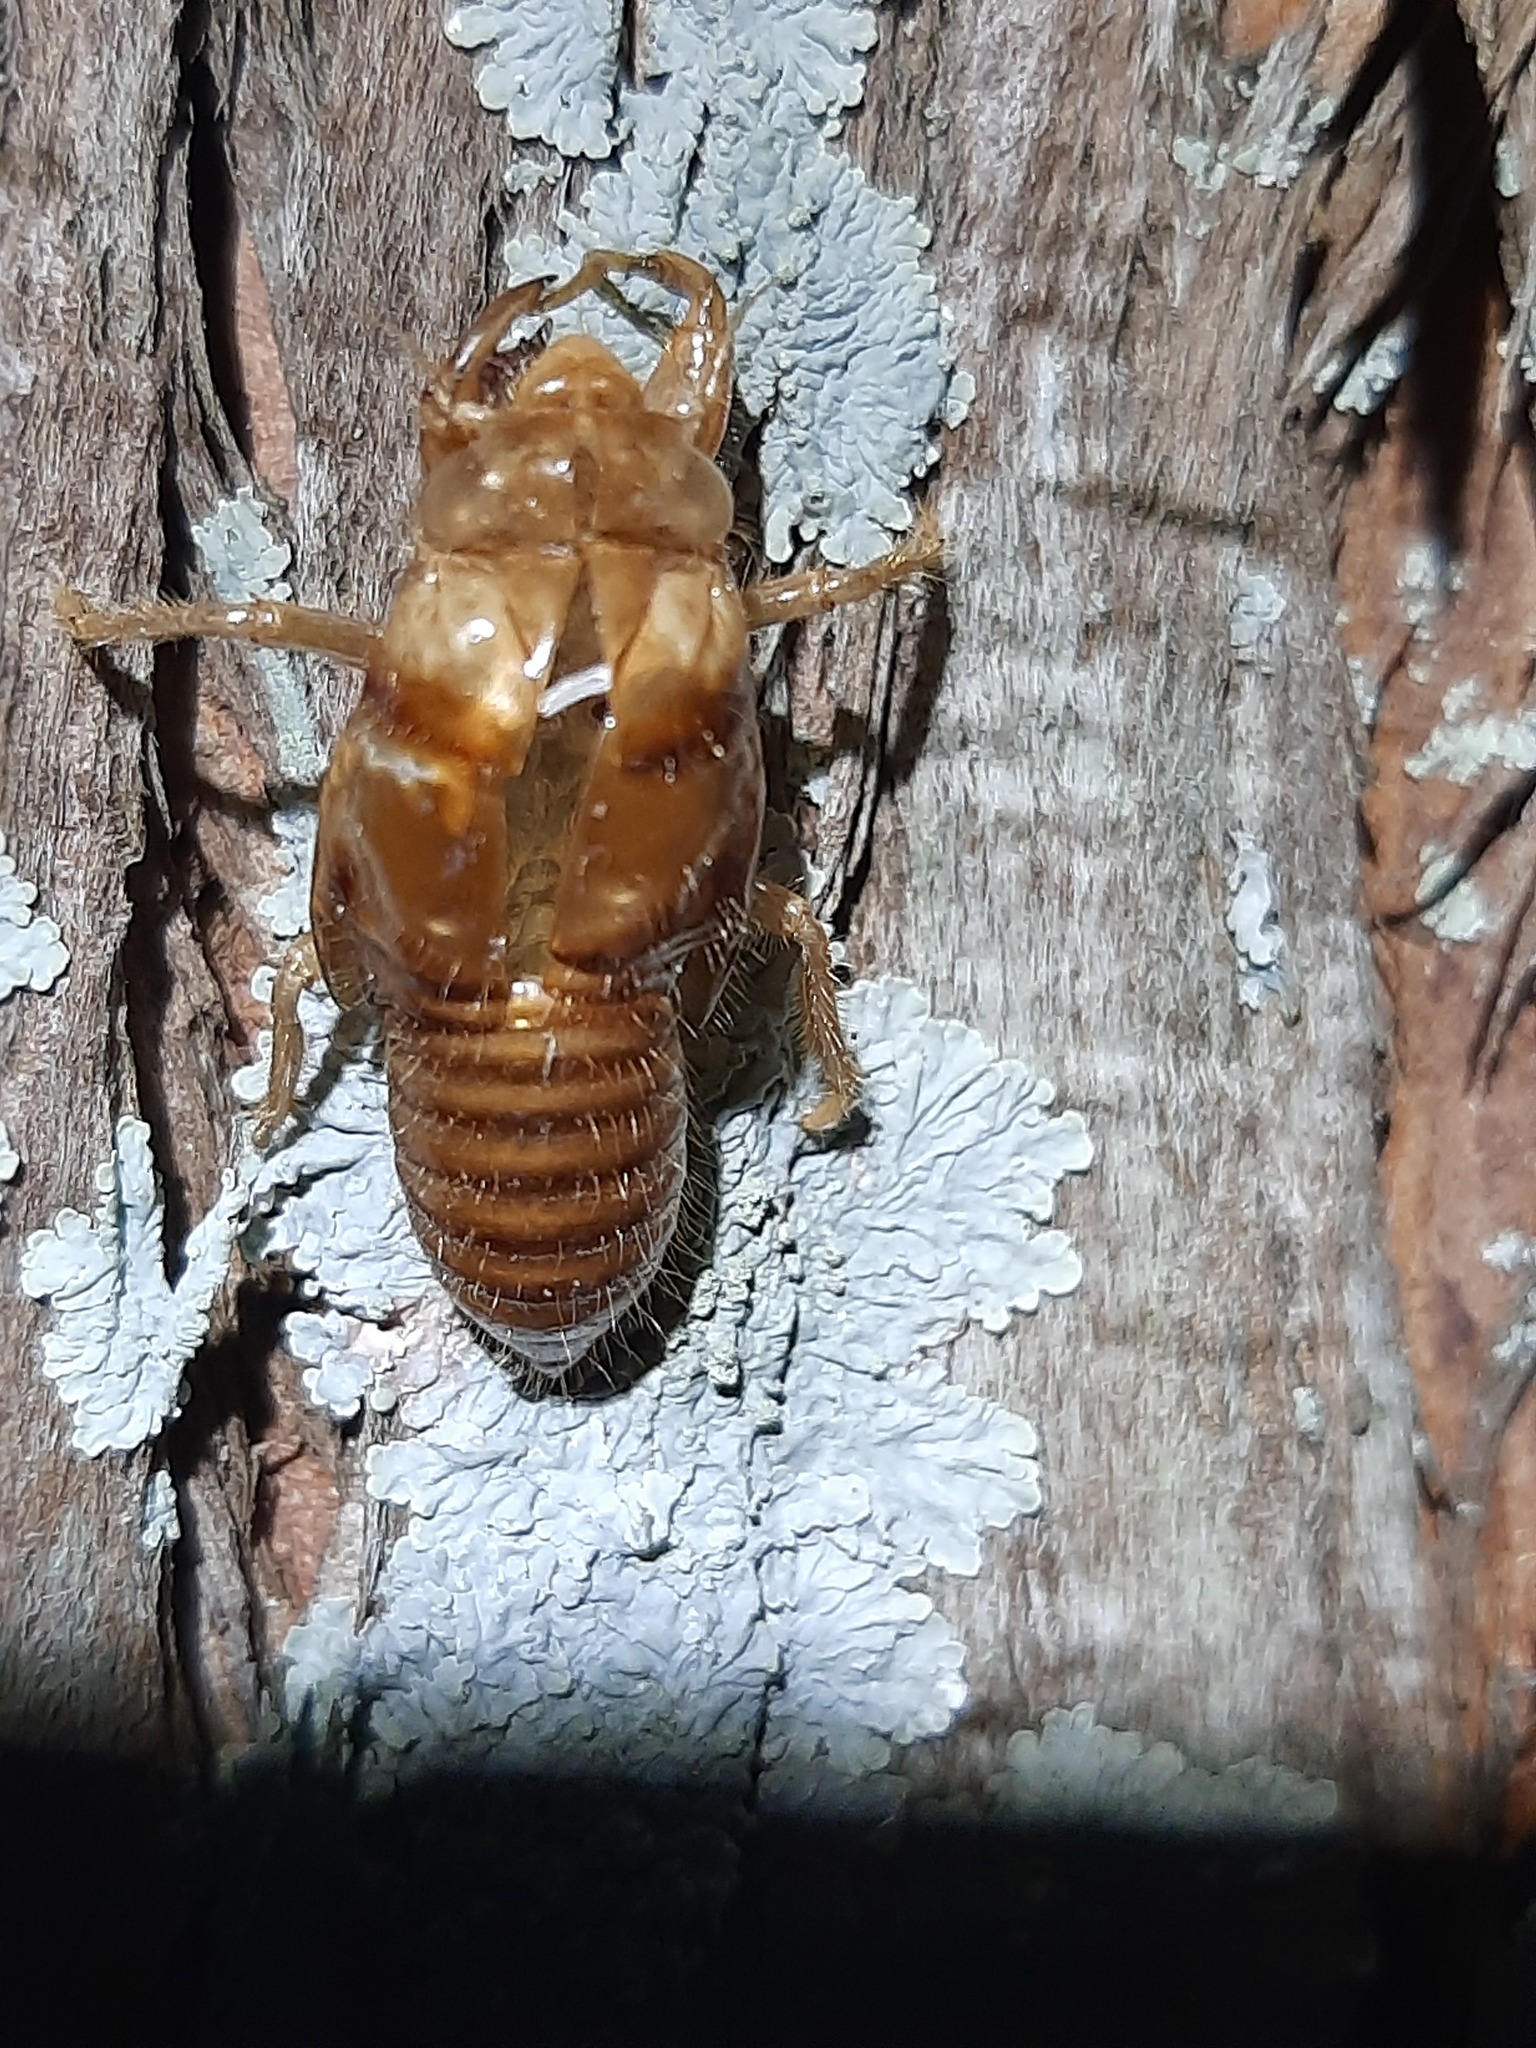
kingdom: Animalia
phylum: Arthropoda
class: Insecta
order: Hemiptera
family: Cicadidae
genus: Amphipsalta
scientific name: Amphipsalta zelandica
